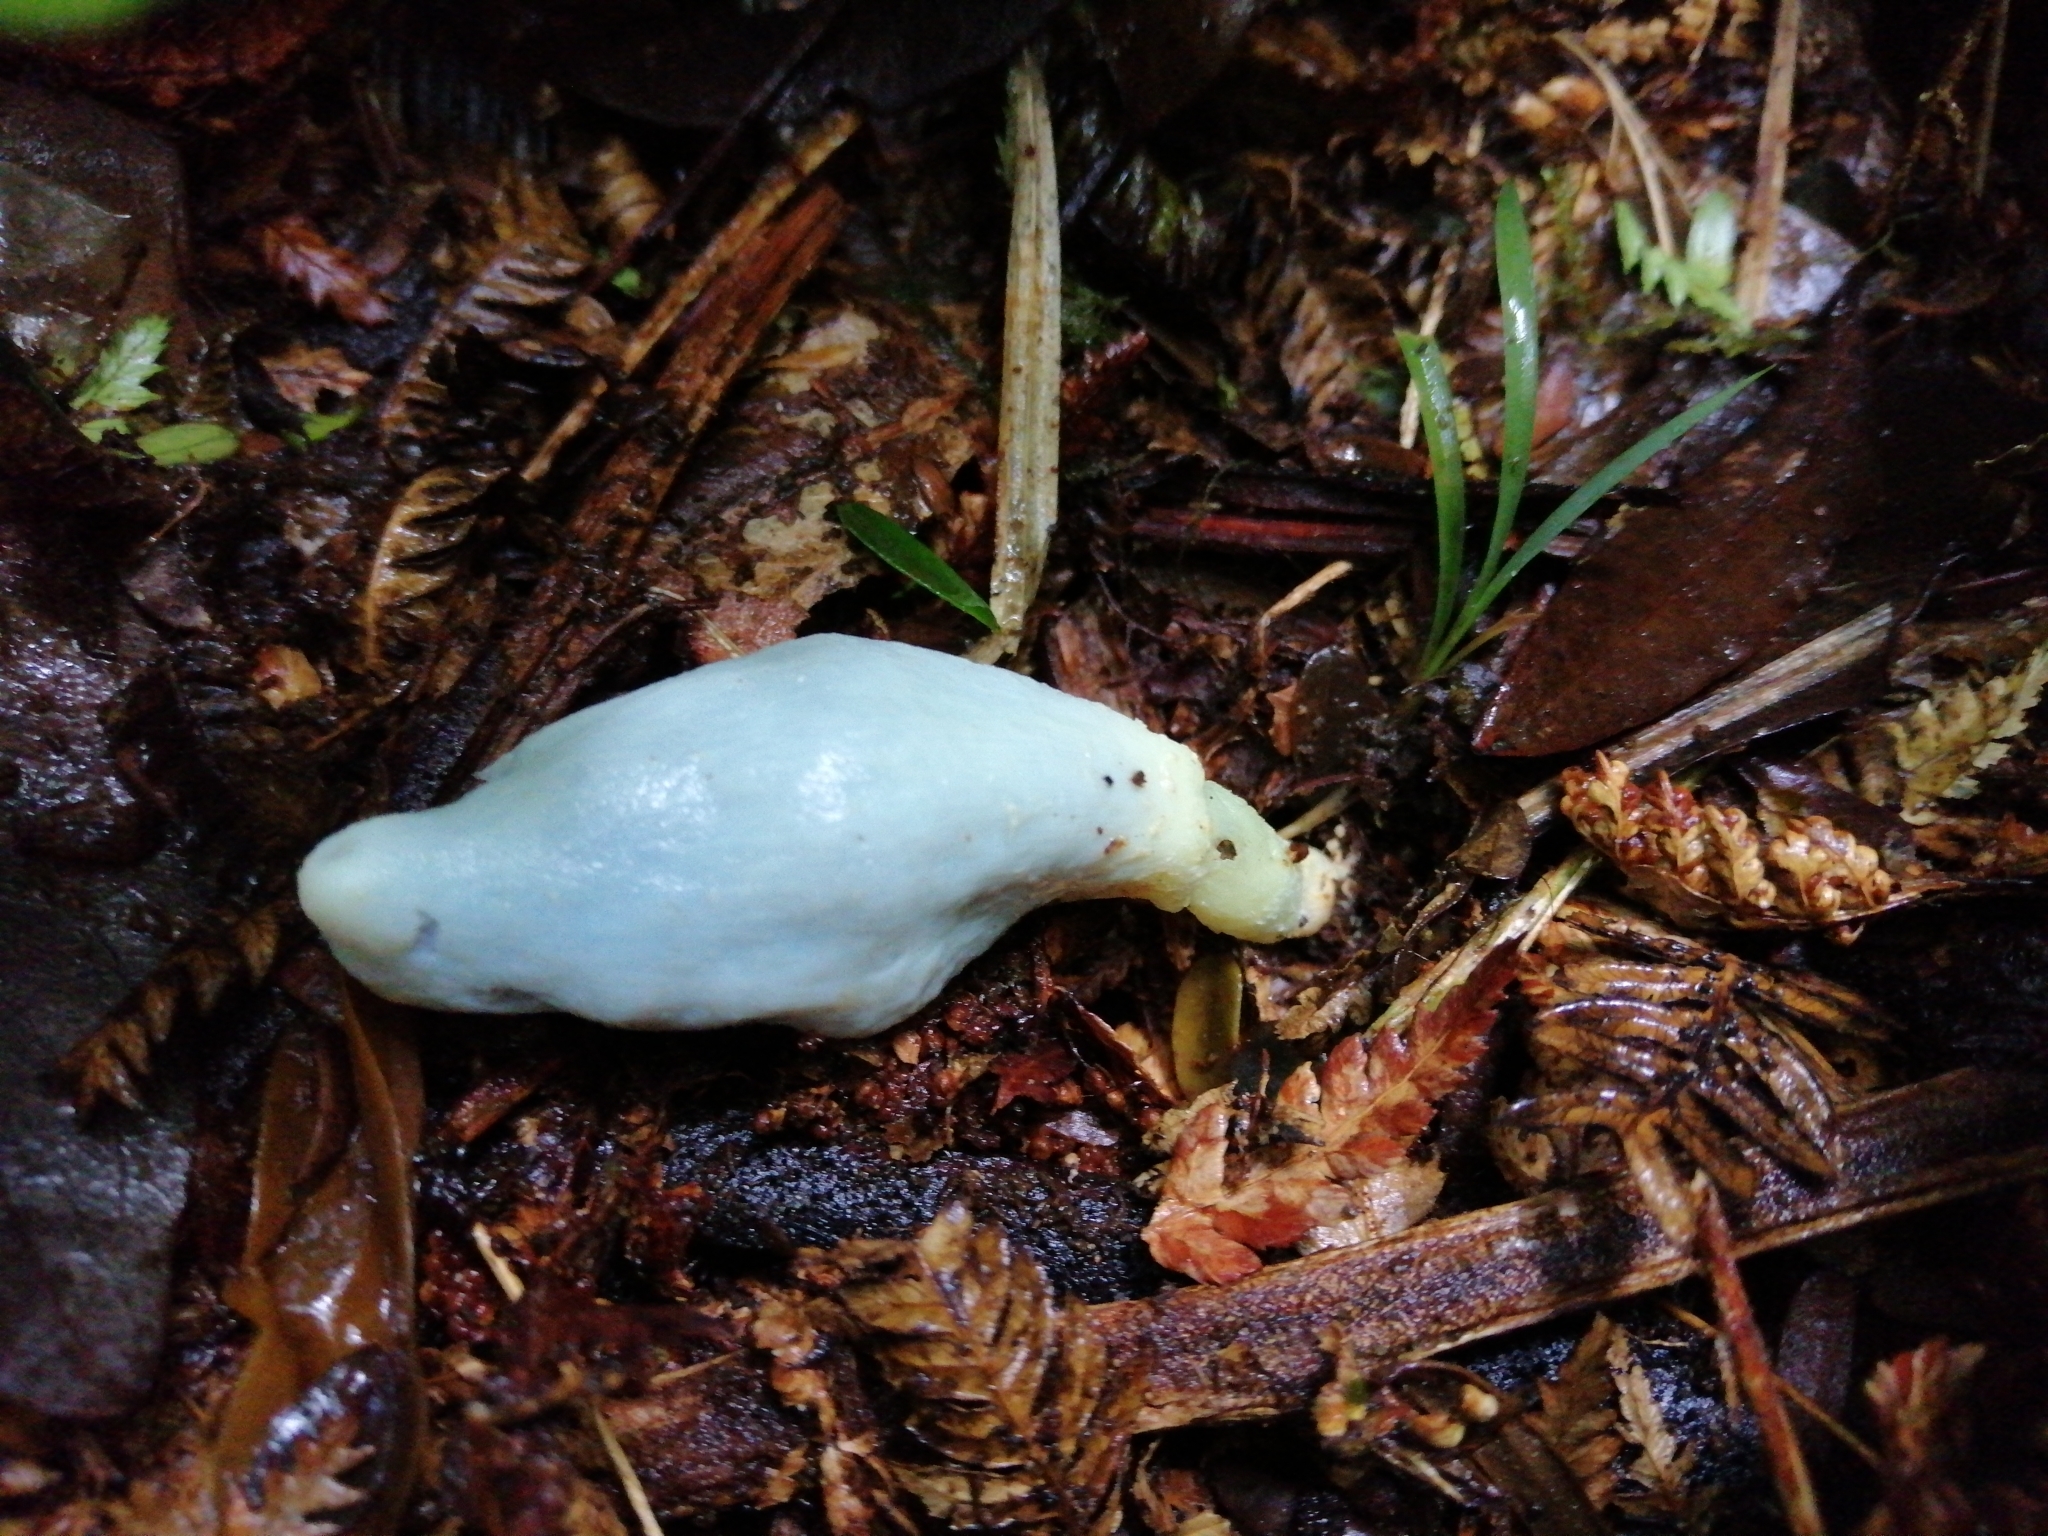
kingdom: Fungi
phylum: Basidiomycota
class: Agaricomycetes
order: Agaricales
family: Agaricaceae
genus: Clavogaster
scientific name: Clavogaster virescens
